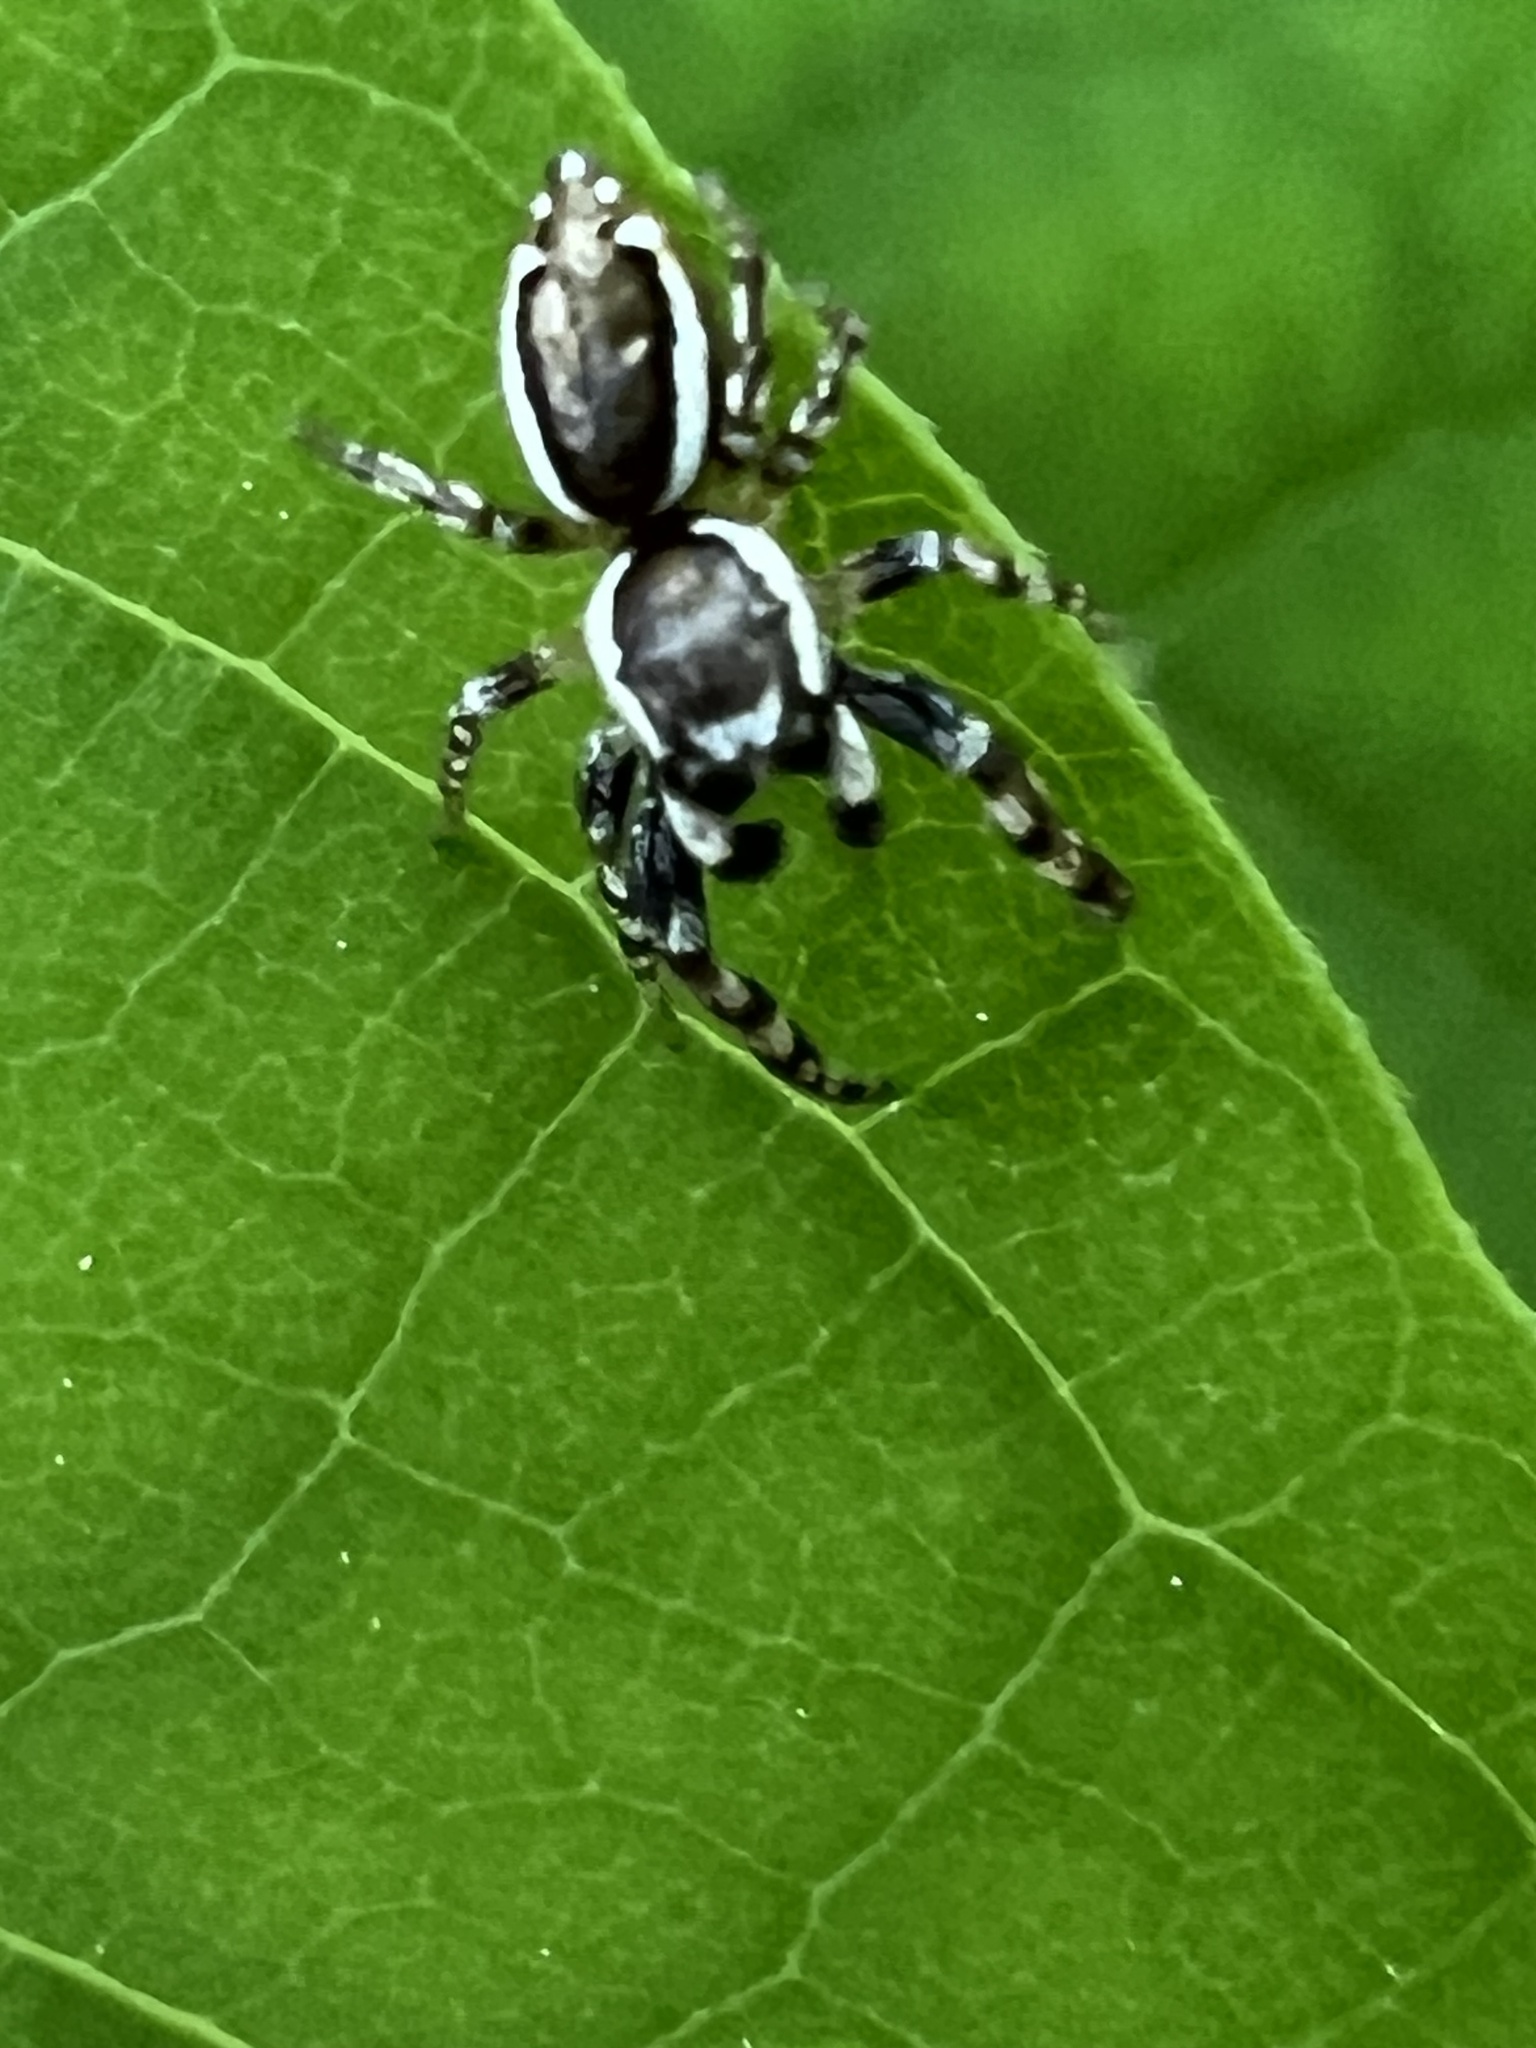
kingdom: Animalia
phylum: Arthropoda
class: Arachnida
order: Araneae
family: Salticidae
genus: Pelegrina
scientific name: Pelegrina proterva
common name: Common white-cheeked jumping spider
